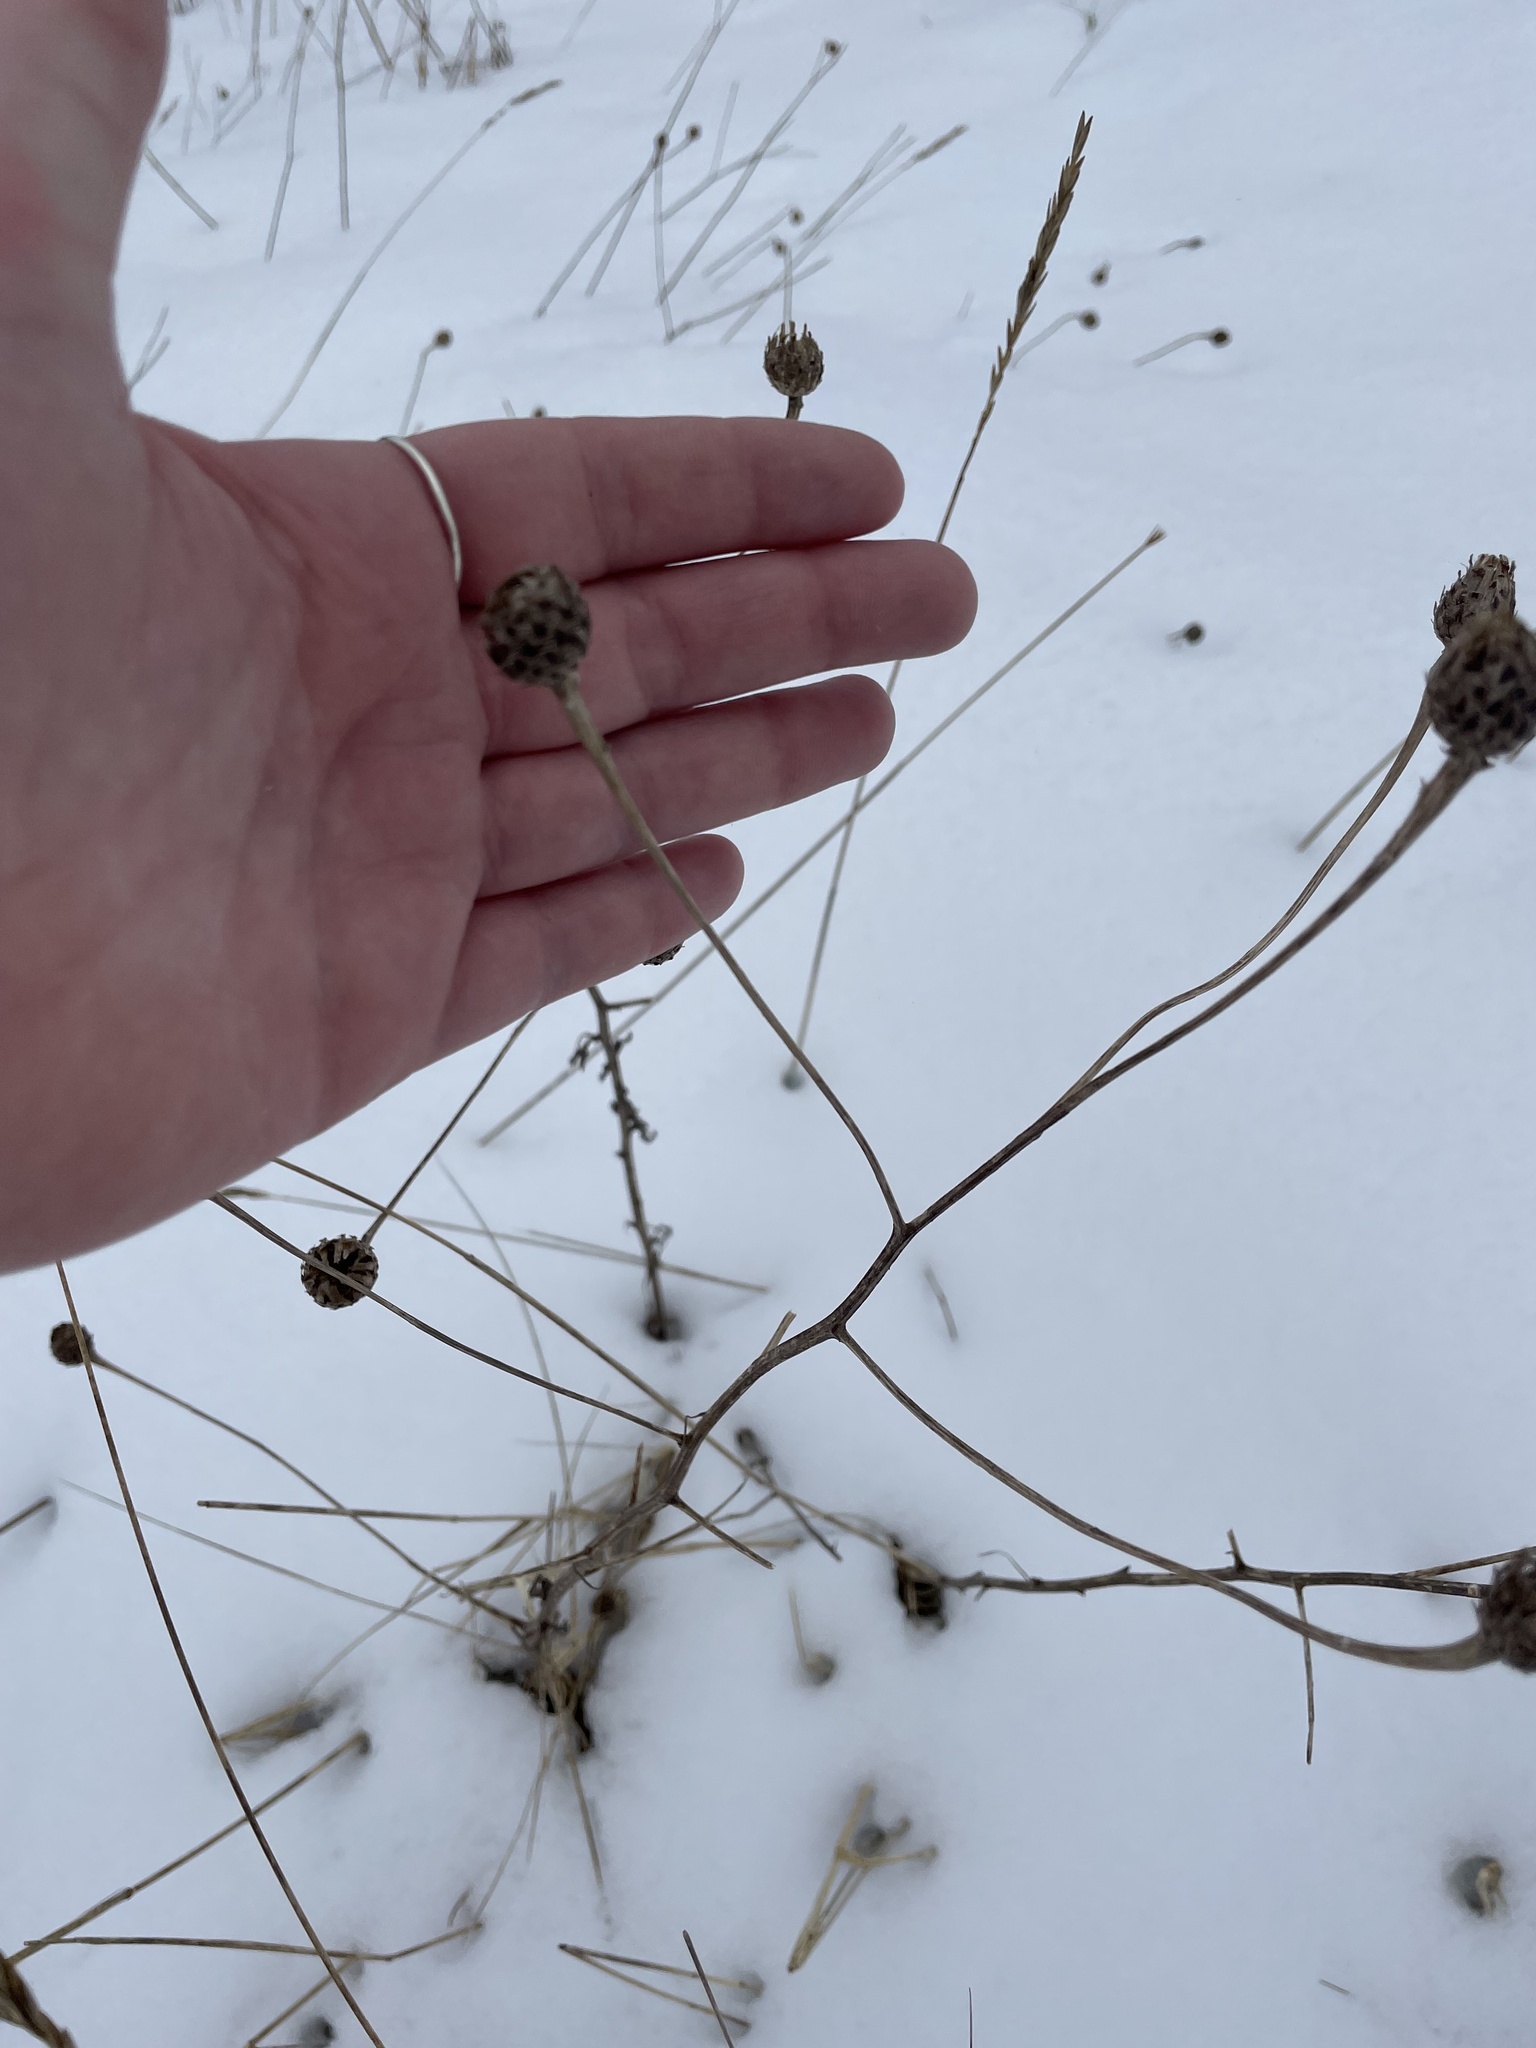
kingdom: Plantae
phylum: Tracheophyta
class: Magnoliopsida
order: Asterales
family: Asteraceae
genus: Centaurea
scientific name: Centaurea nigra
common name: Lesser knapweed
